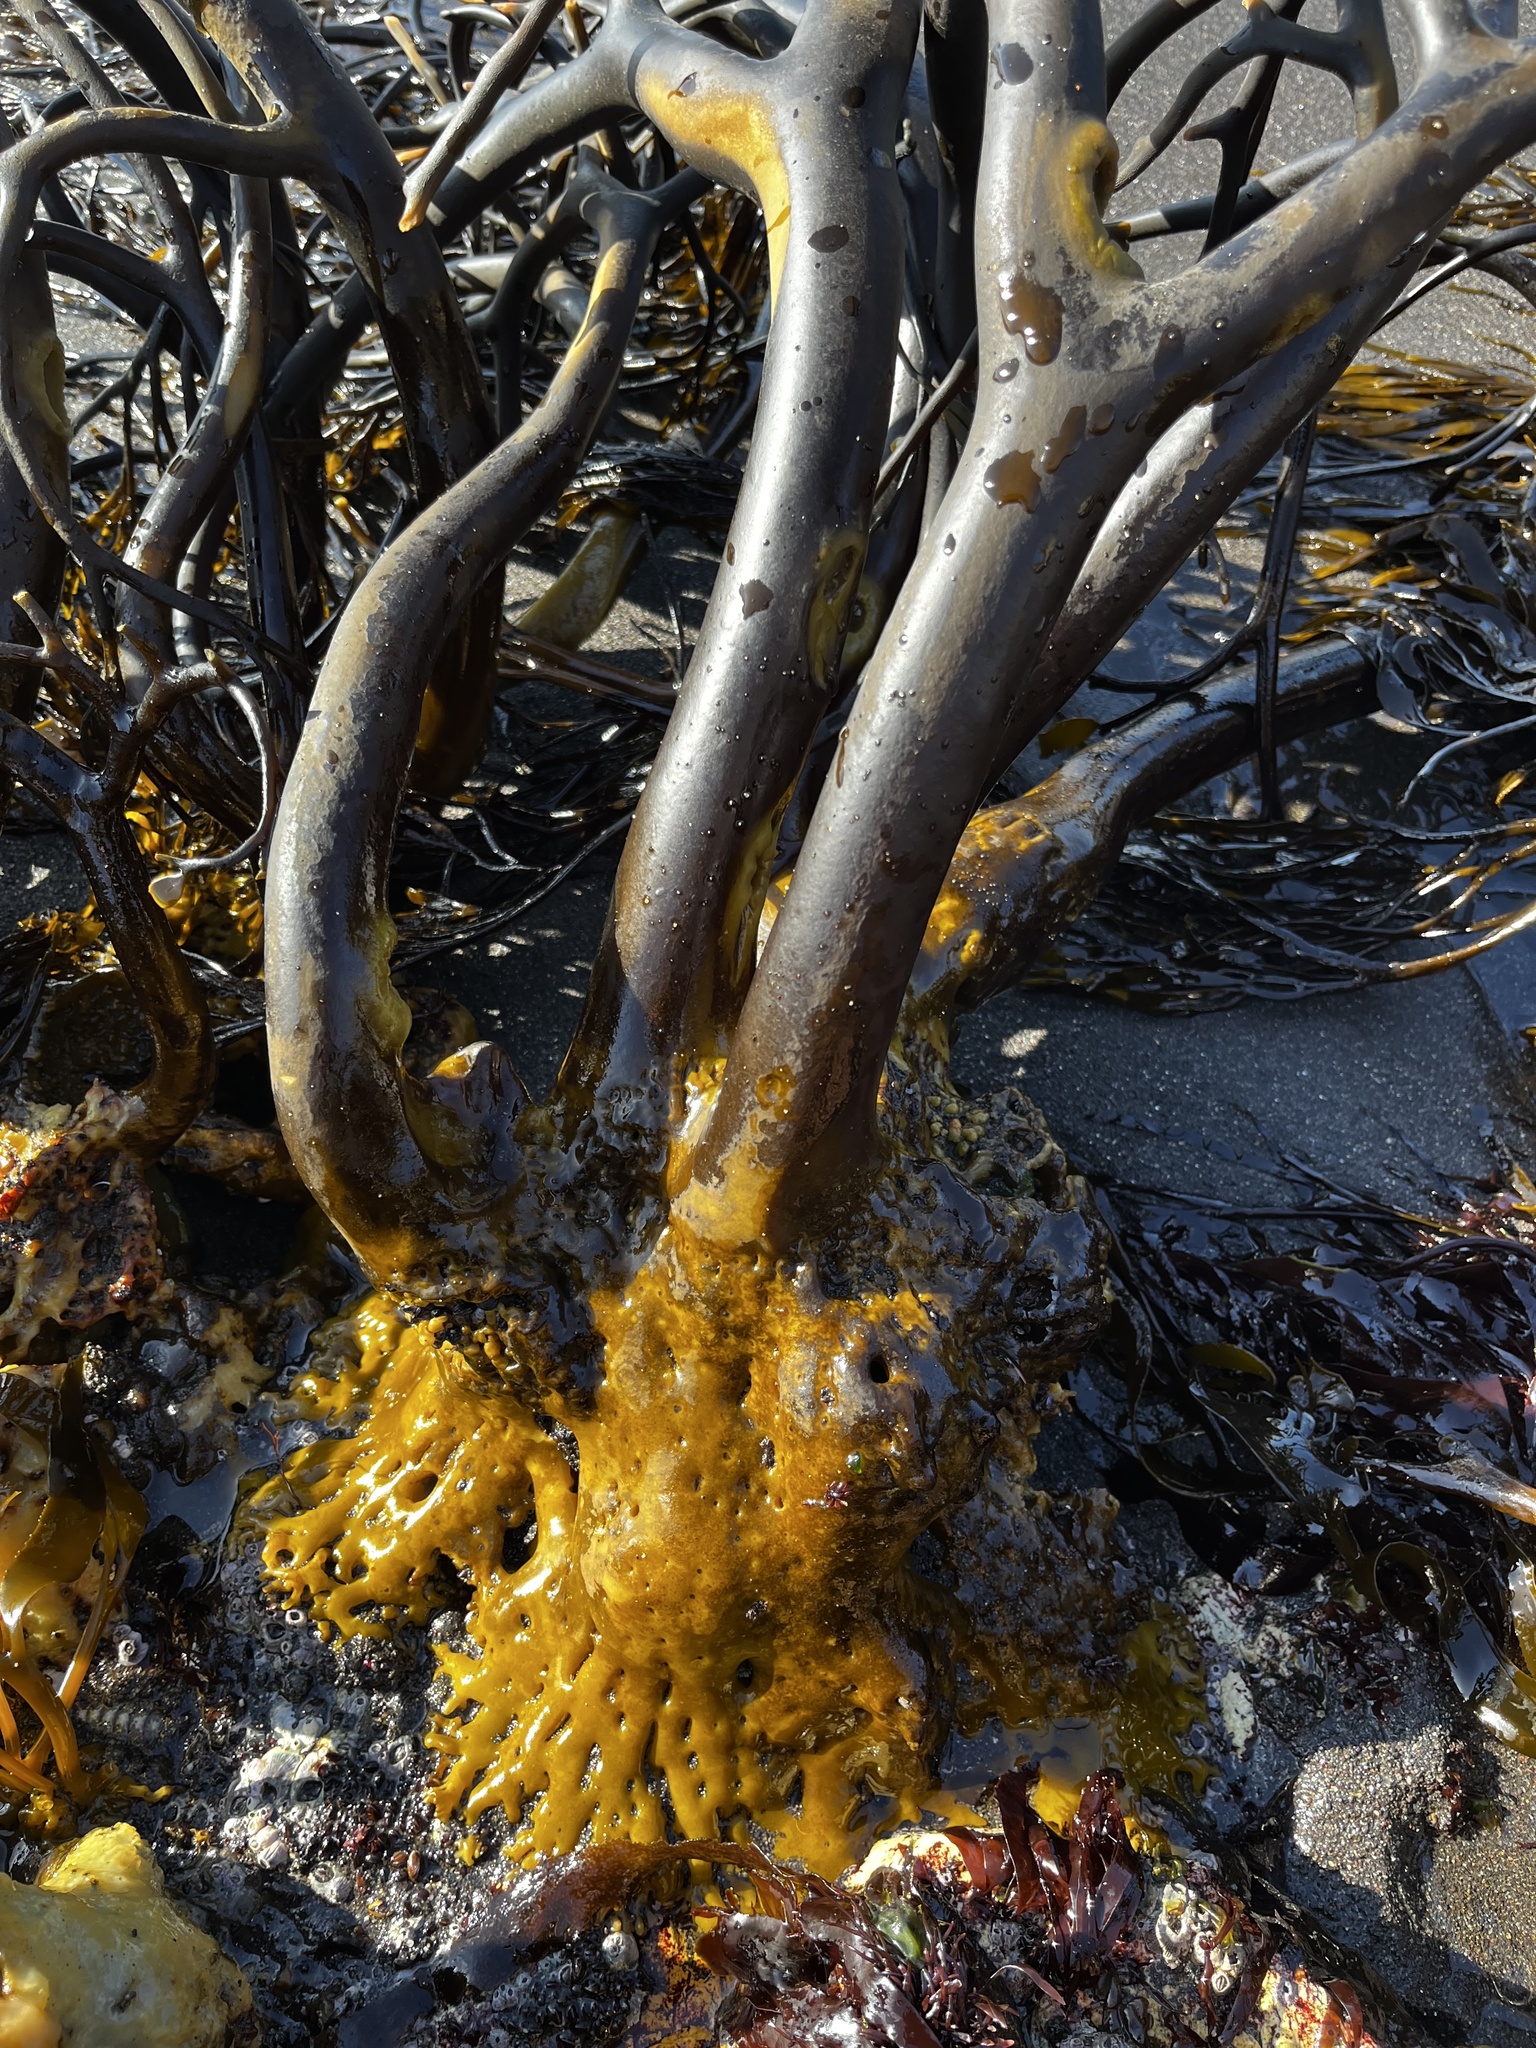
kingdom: Chromista
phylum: Ochrophyta
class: Phaeophyceae
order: Laminariales
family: Lessoniaceae
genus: Lessonia
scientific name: Lessonia spicata
